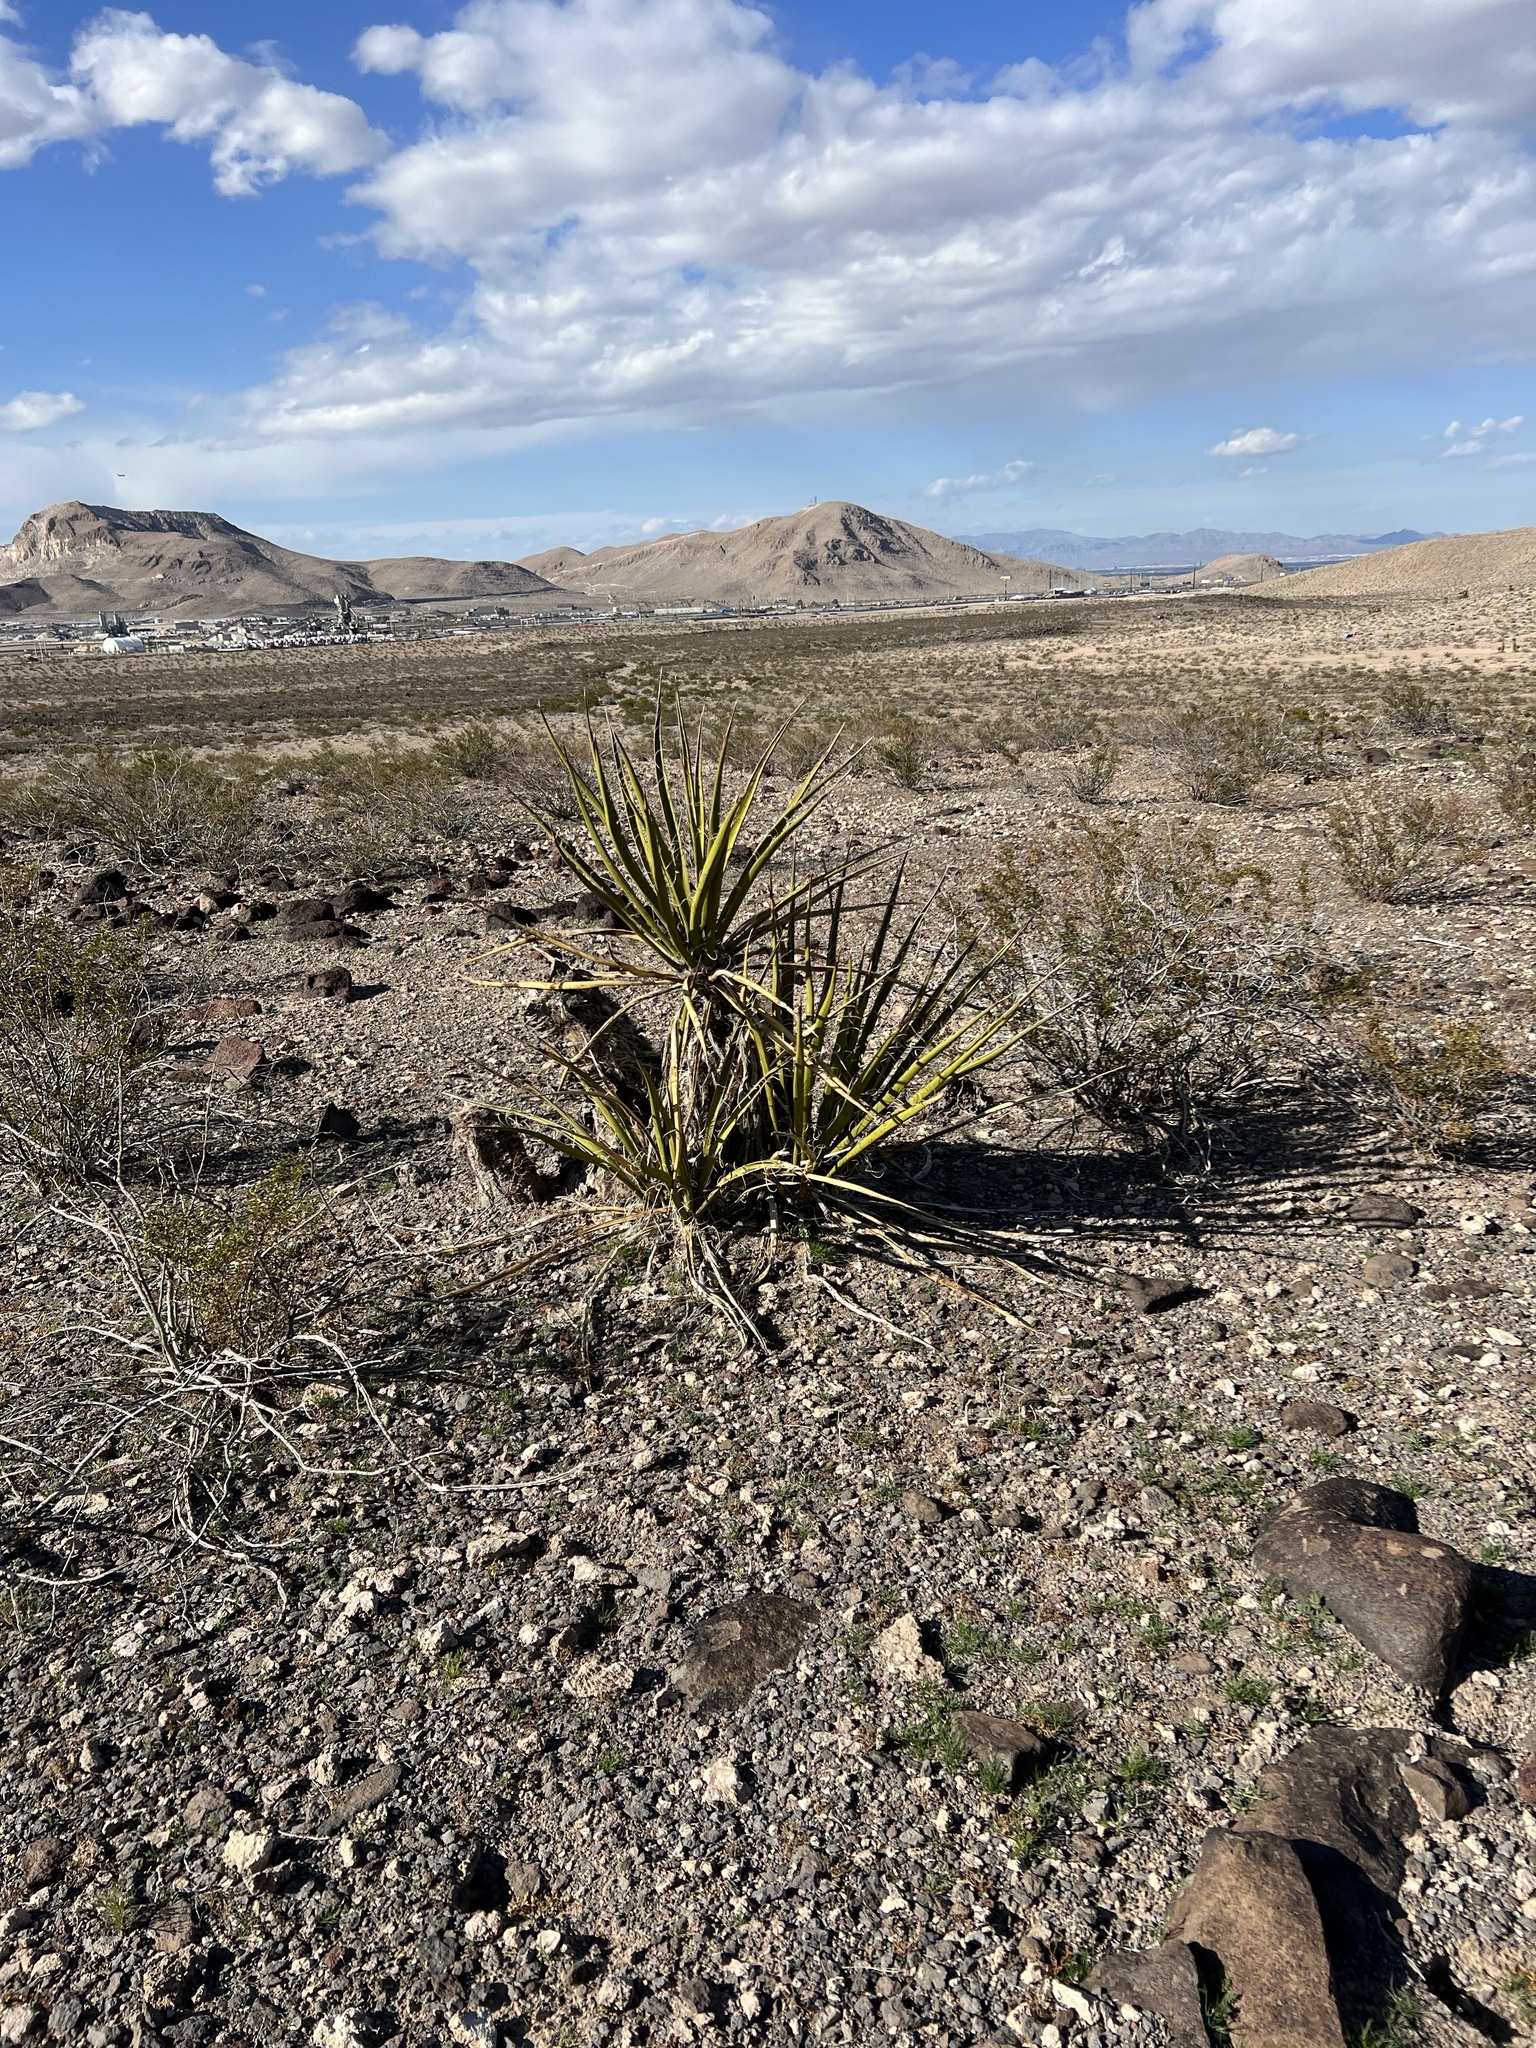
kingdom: Plantae
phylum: Tracheophyta
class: Liliopsida
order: Asparagales
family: Asparagaceae
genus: Yucca
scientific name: Yucca schidigera
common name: Mojave yucca
